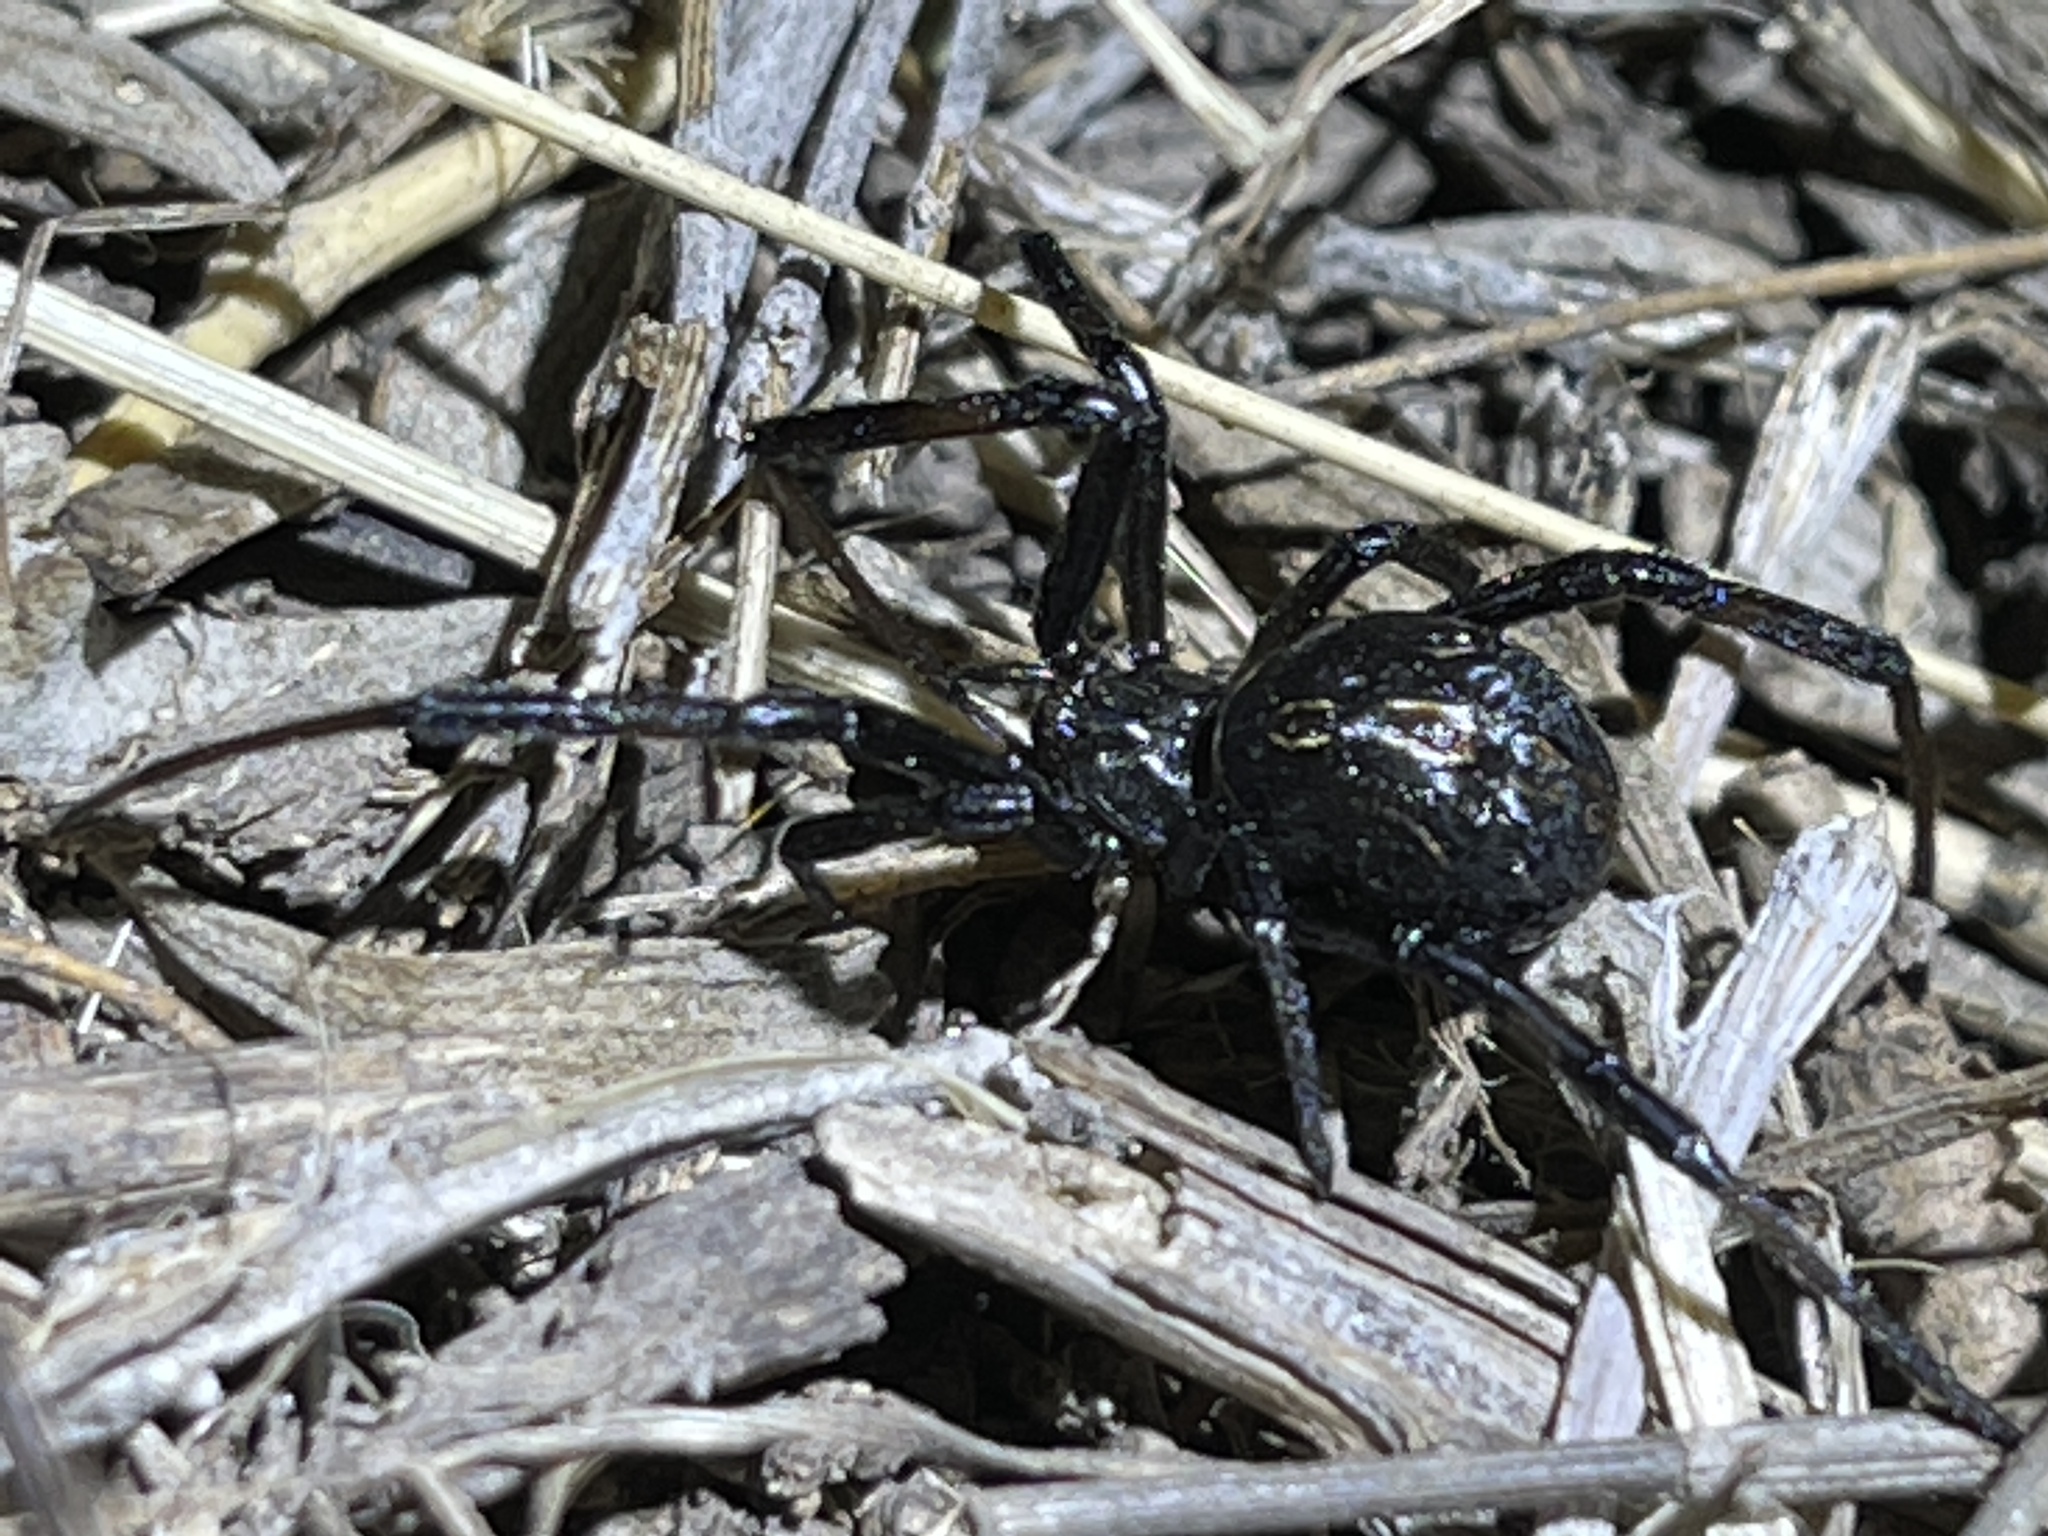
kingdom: Animalia
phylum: Arthropoda
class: Arachnida
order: Araneae
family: Theridiidae
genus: Latrodectus
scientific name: Latrodectus hesperus
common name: Western black widow
